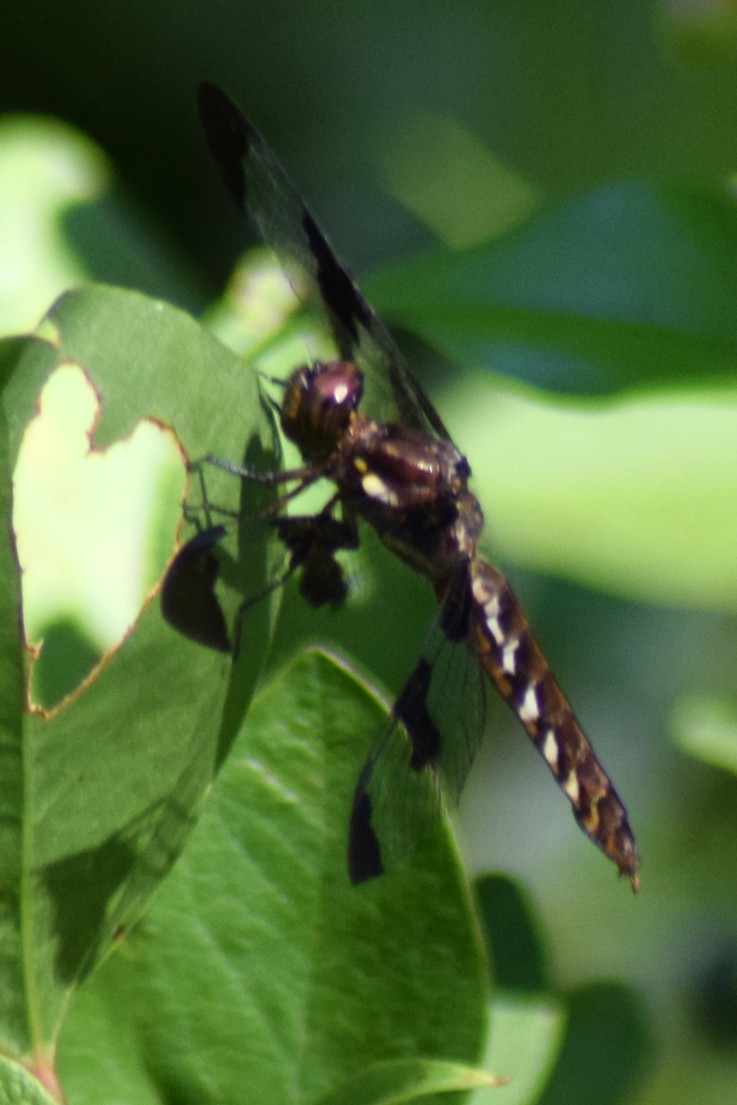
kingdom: Animalia
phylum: Arthropoda
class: Insecta
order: Odonata
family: Libellulidae
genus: Plathemis
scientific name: Plathemis lydia
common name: Common whitetail
